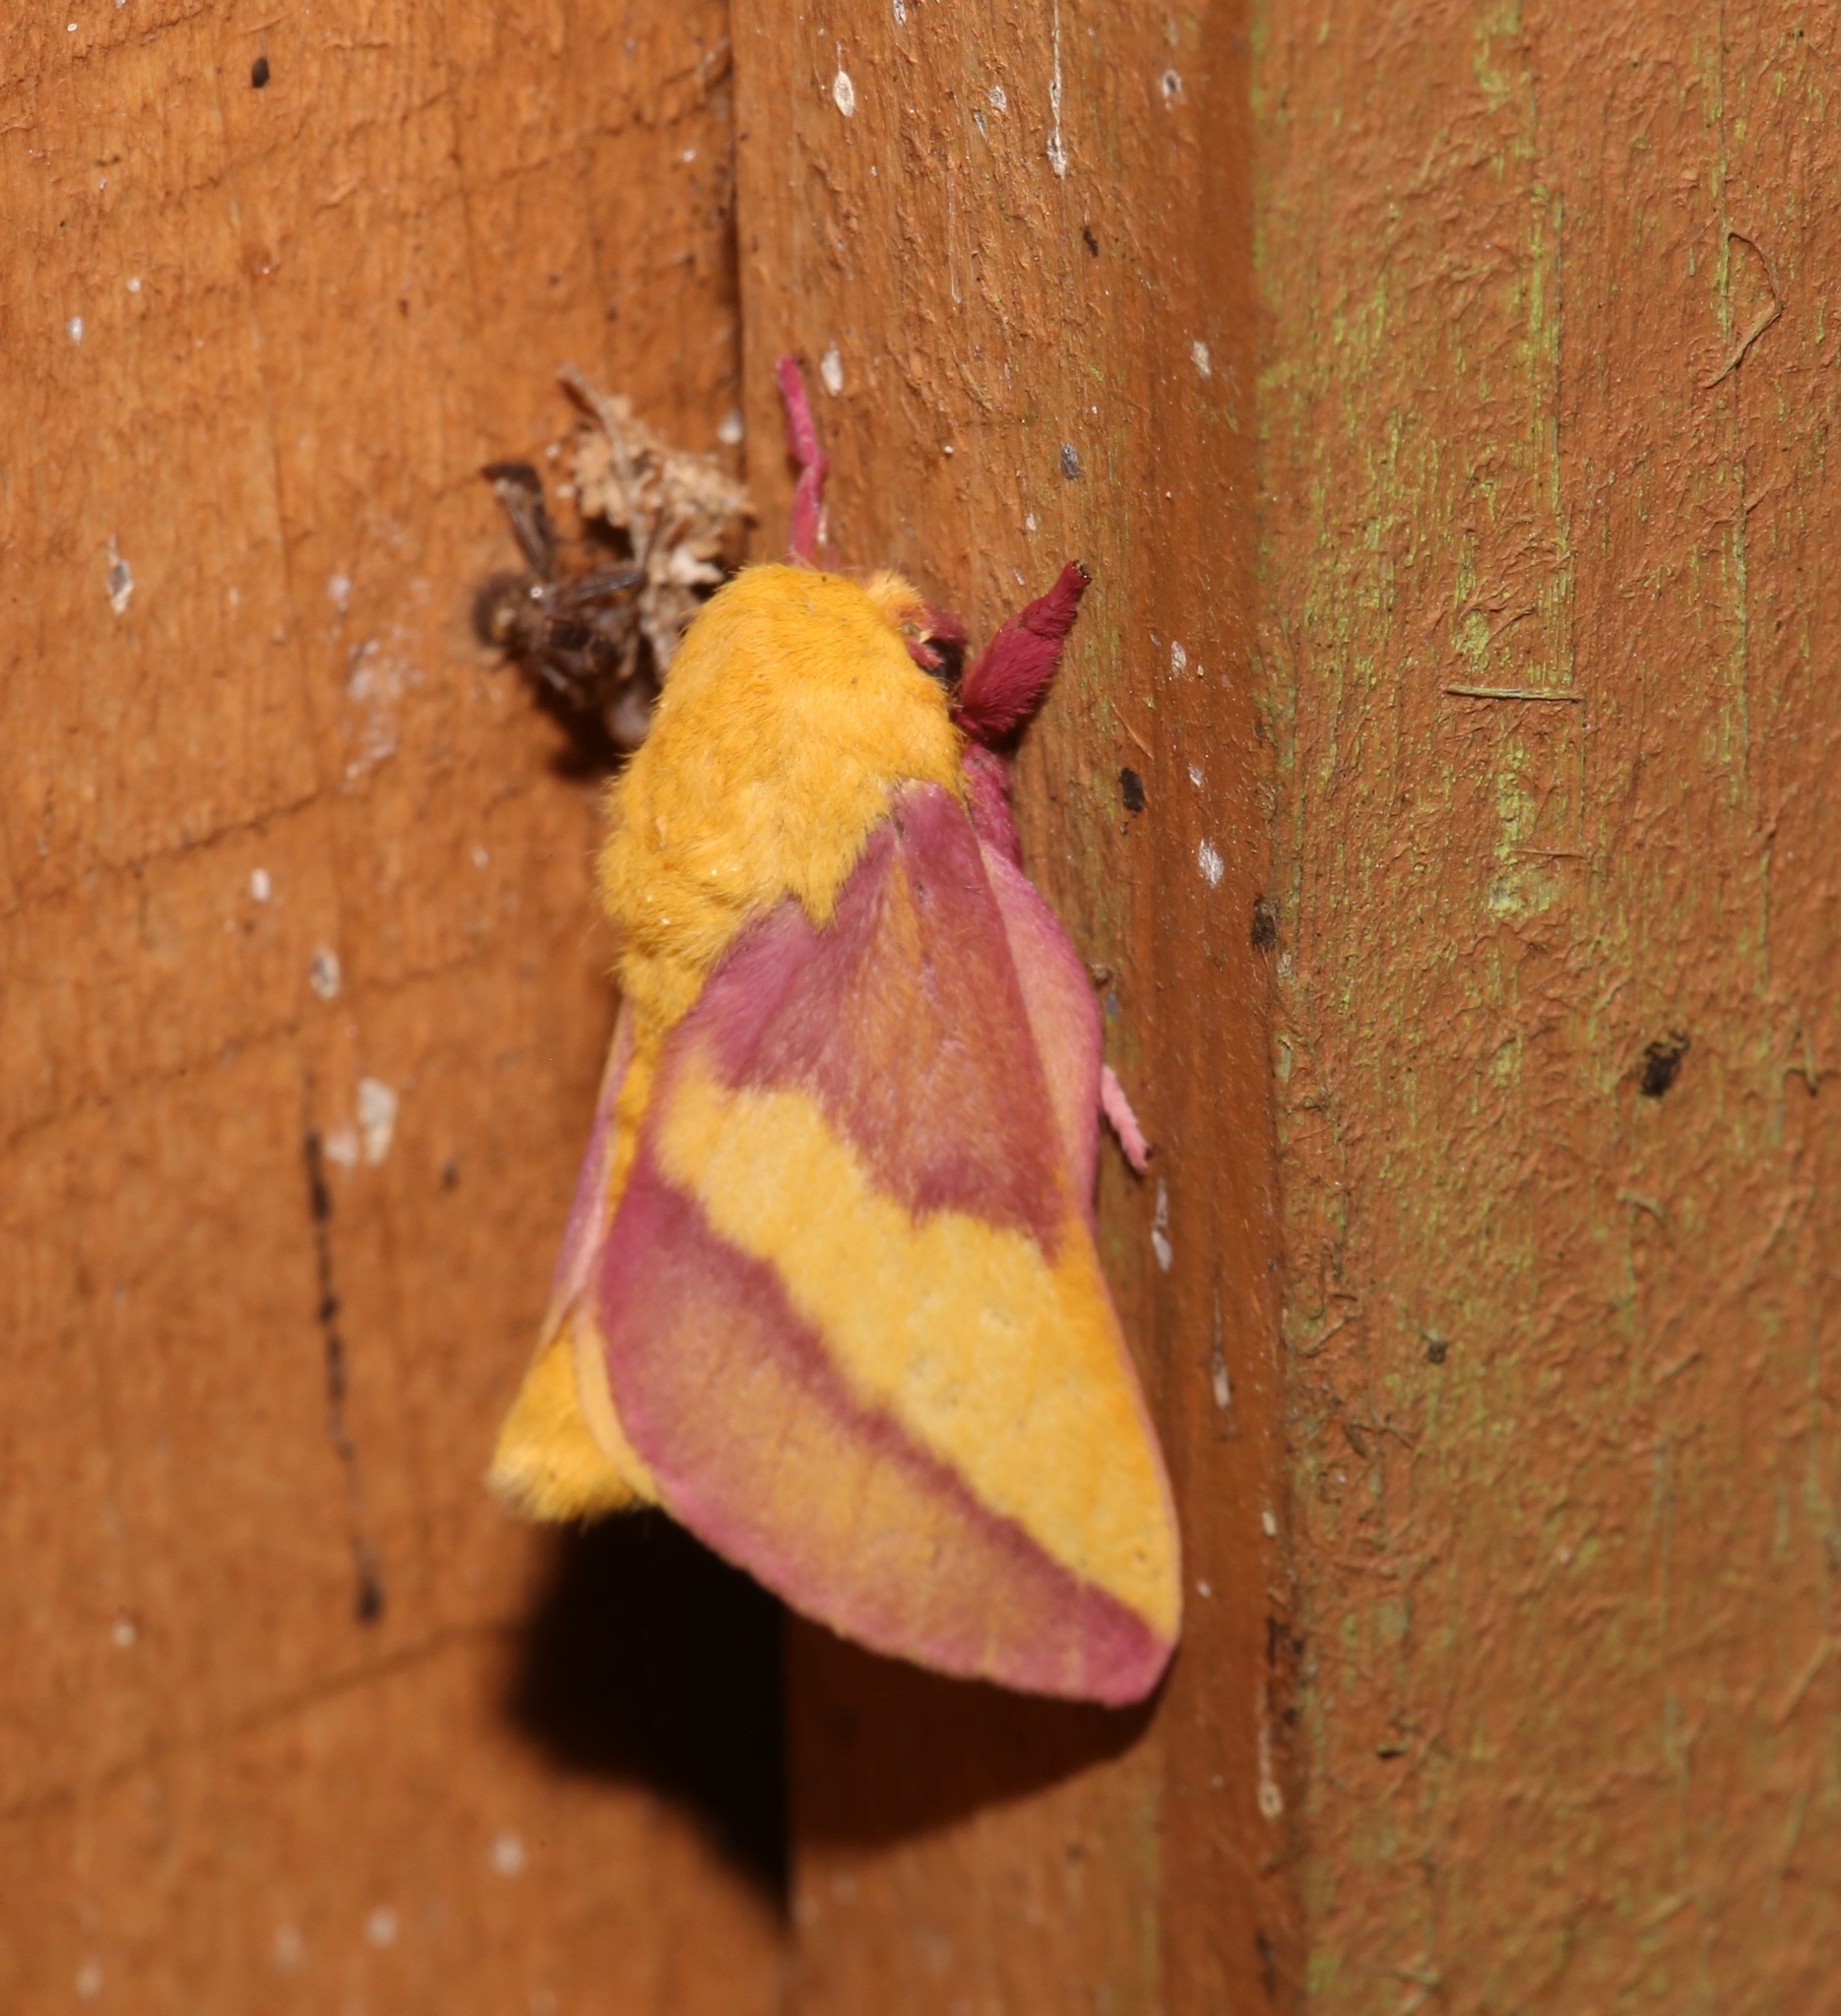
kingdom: Animalia
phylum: Arthropoda
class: Insecta
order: Lepidoptera
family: Saturniidae
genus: Dryocampa
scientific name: Dryocampa rubicunda
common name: Rosy maple moth
